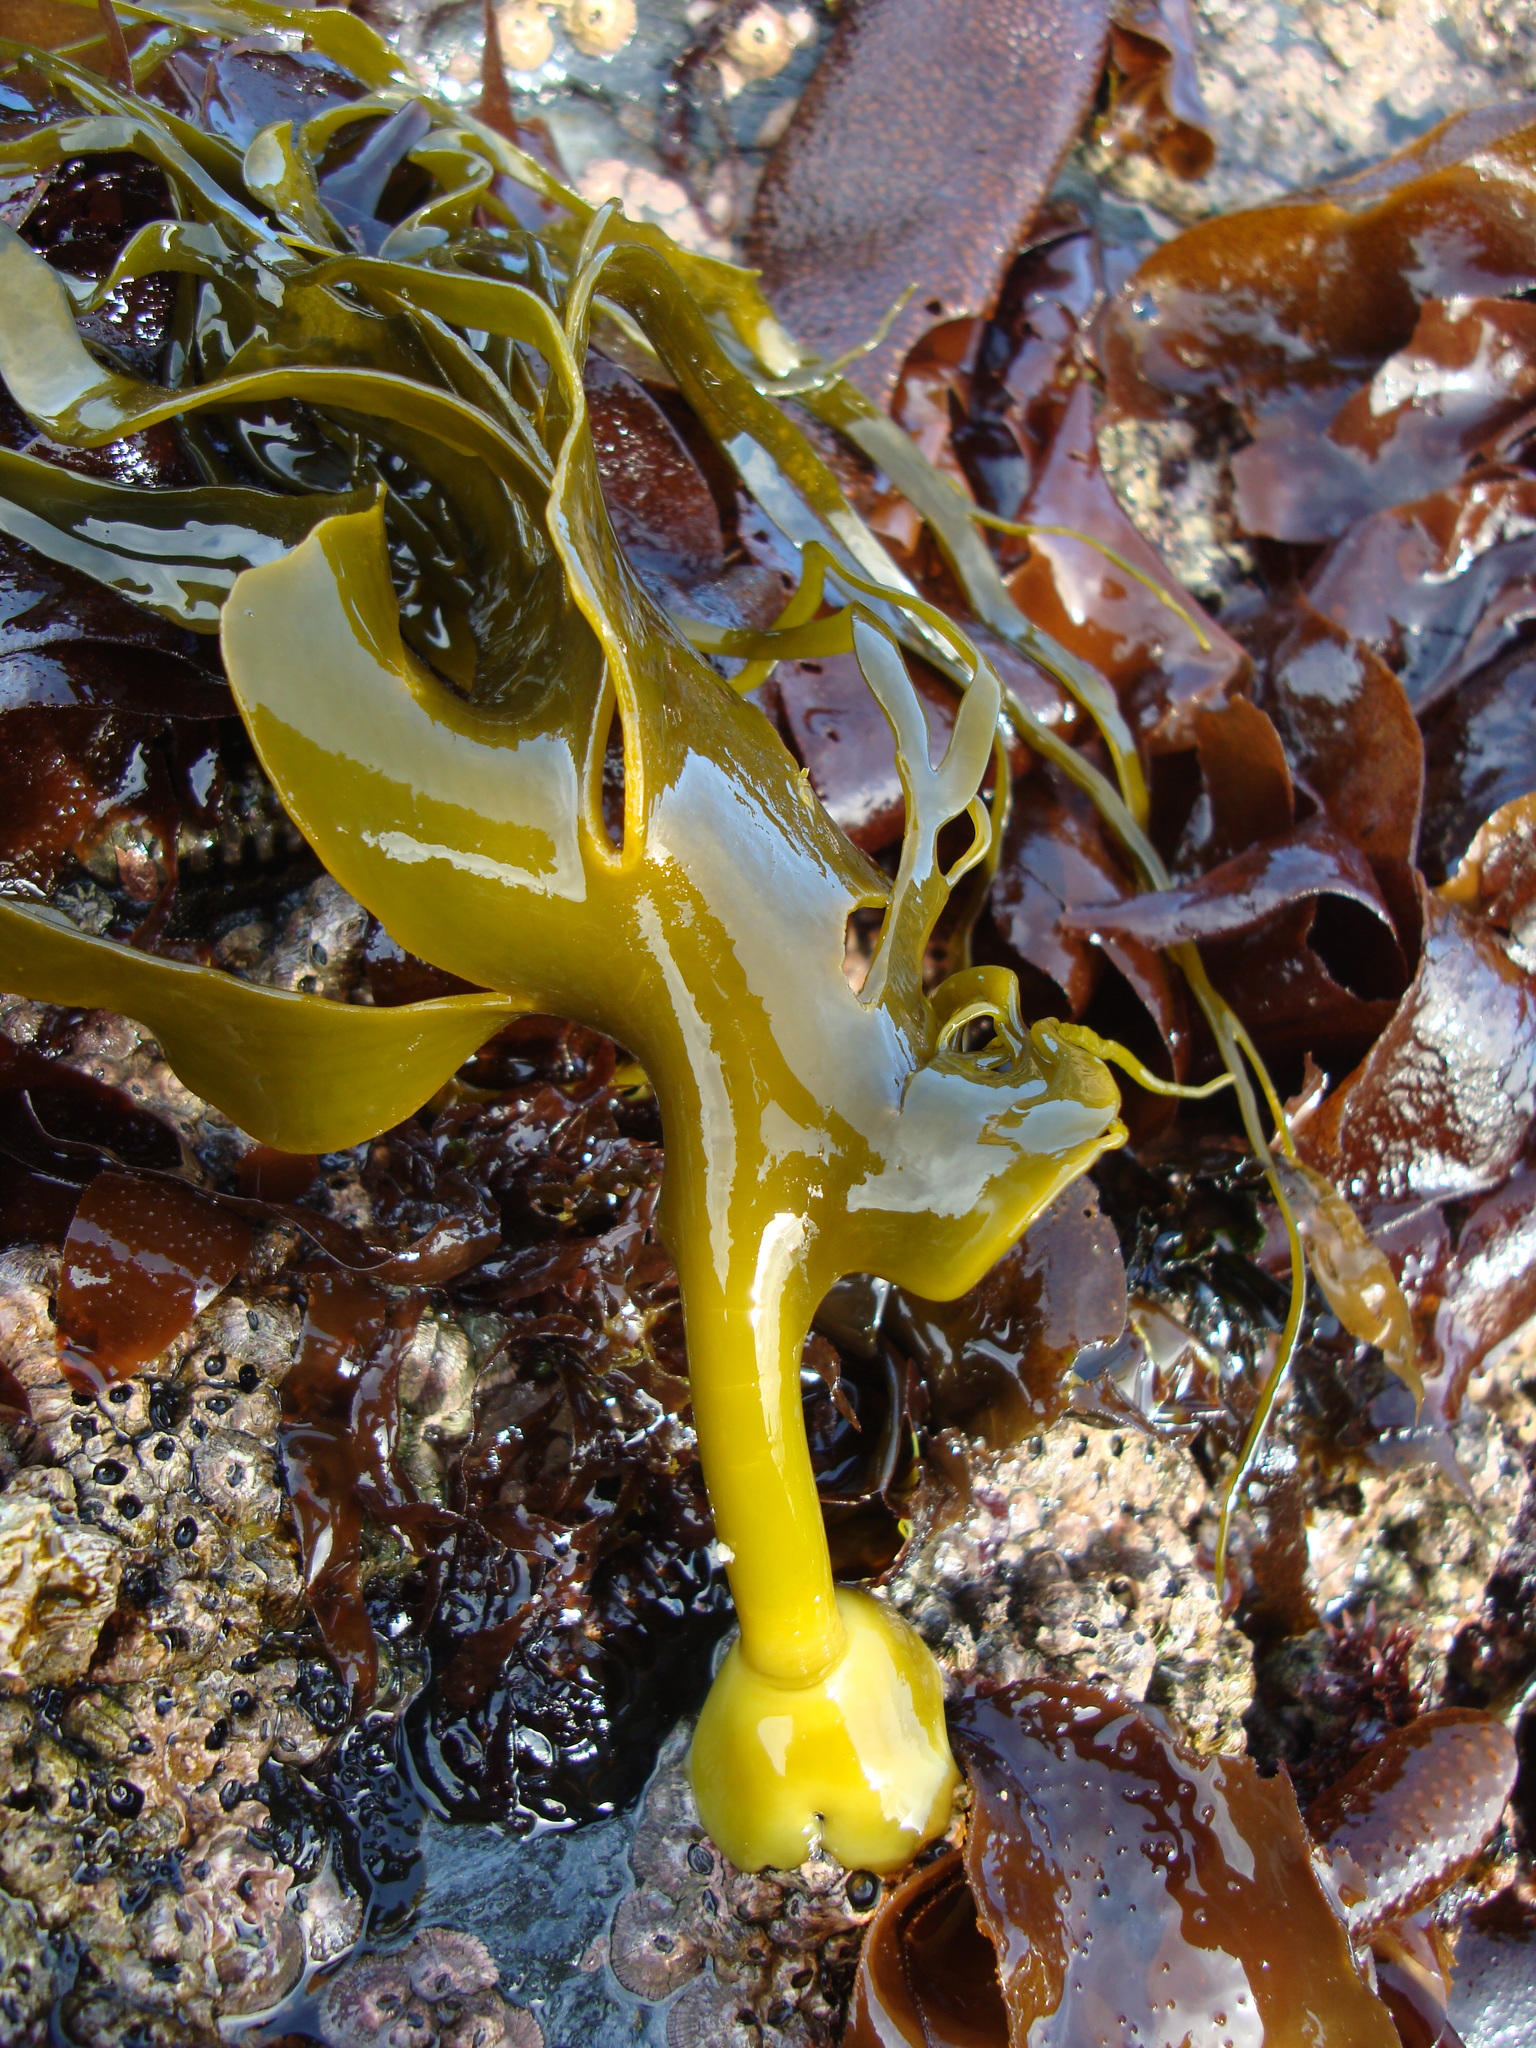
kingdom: Chromista
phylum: Ochrophyta
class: Phaeophyceae
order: Fucales
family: Durvillaeaceae
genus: Durvillaea
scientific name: Durvillaea
